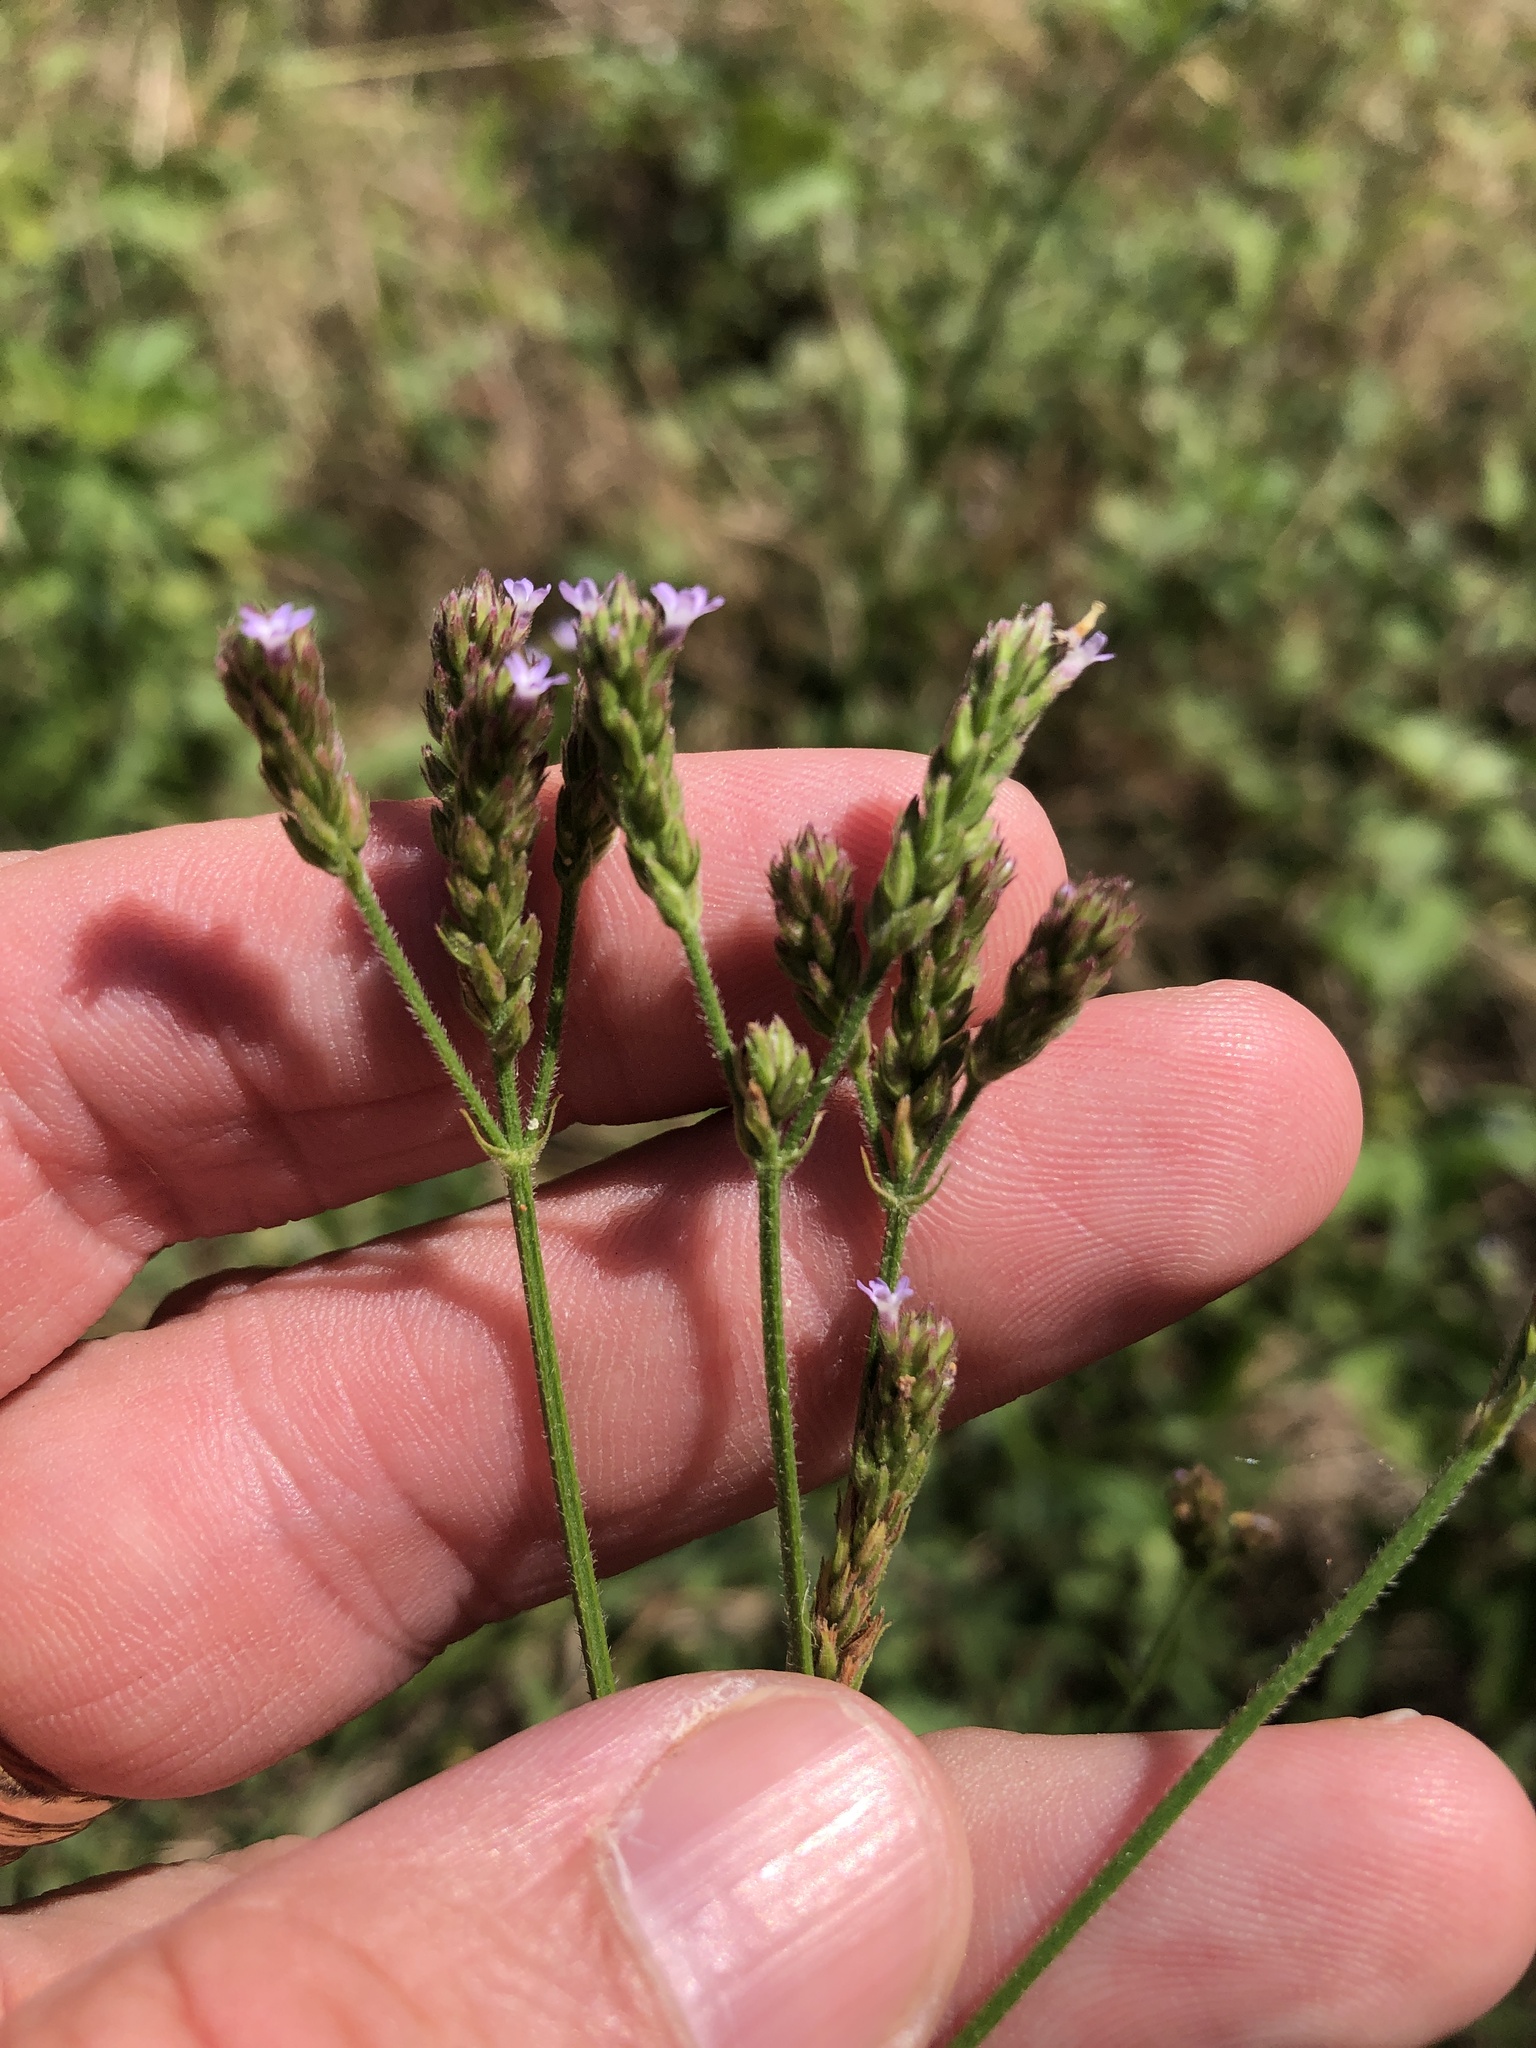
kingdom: Plantae
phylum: Tracheophyta
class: Magnoliopsida
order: Lamiales
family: Verbenaceae
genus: Verbena
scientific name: Verbena brasiliensis
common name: Brazilian vervain
